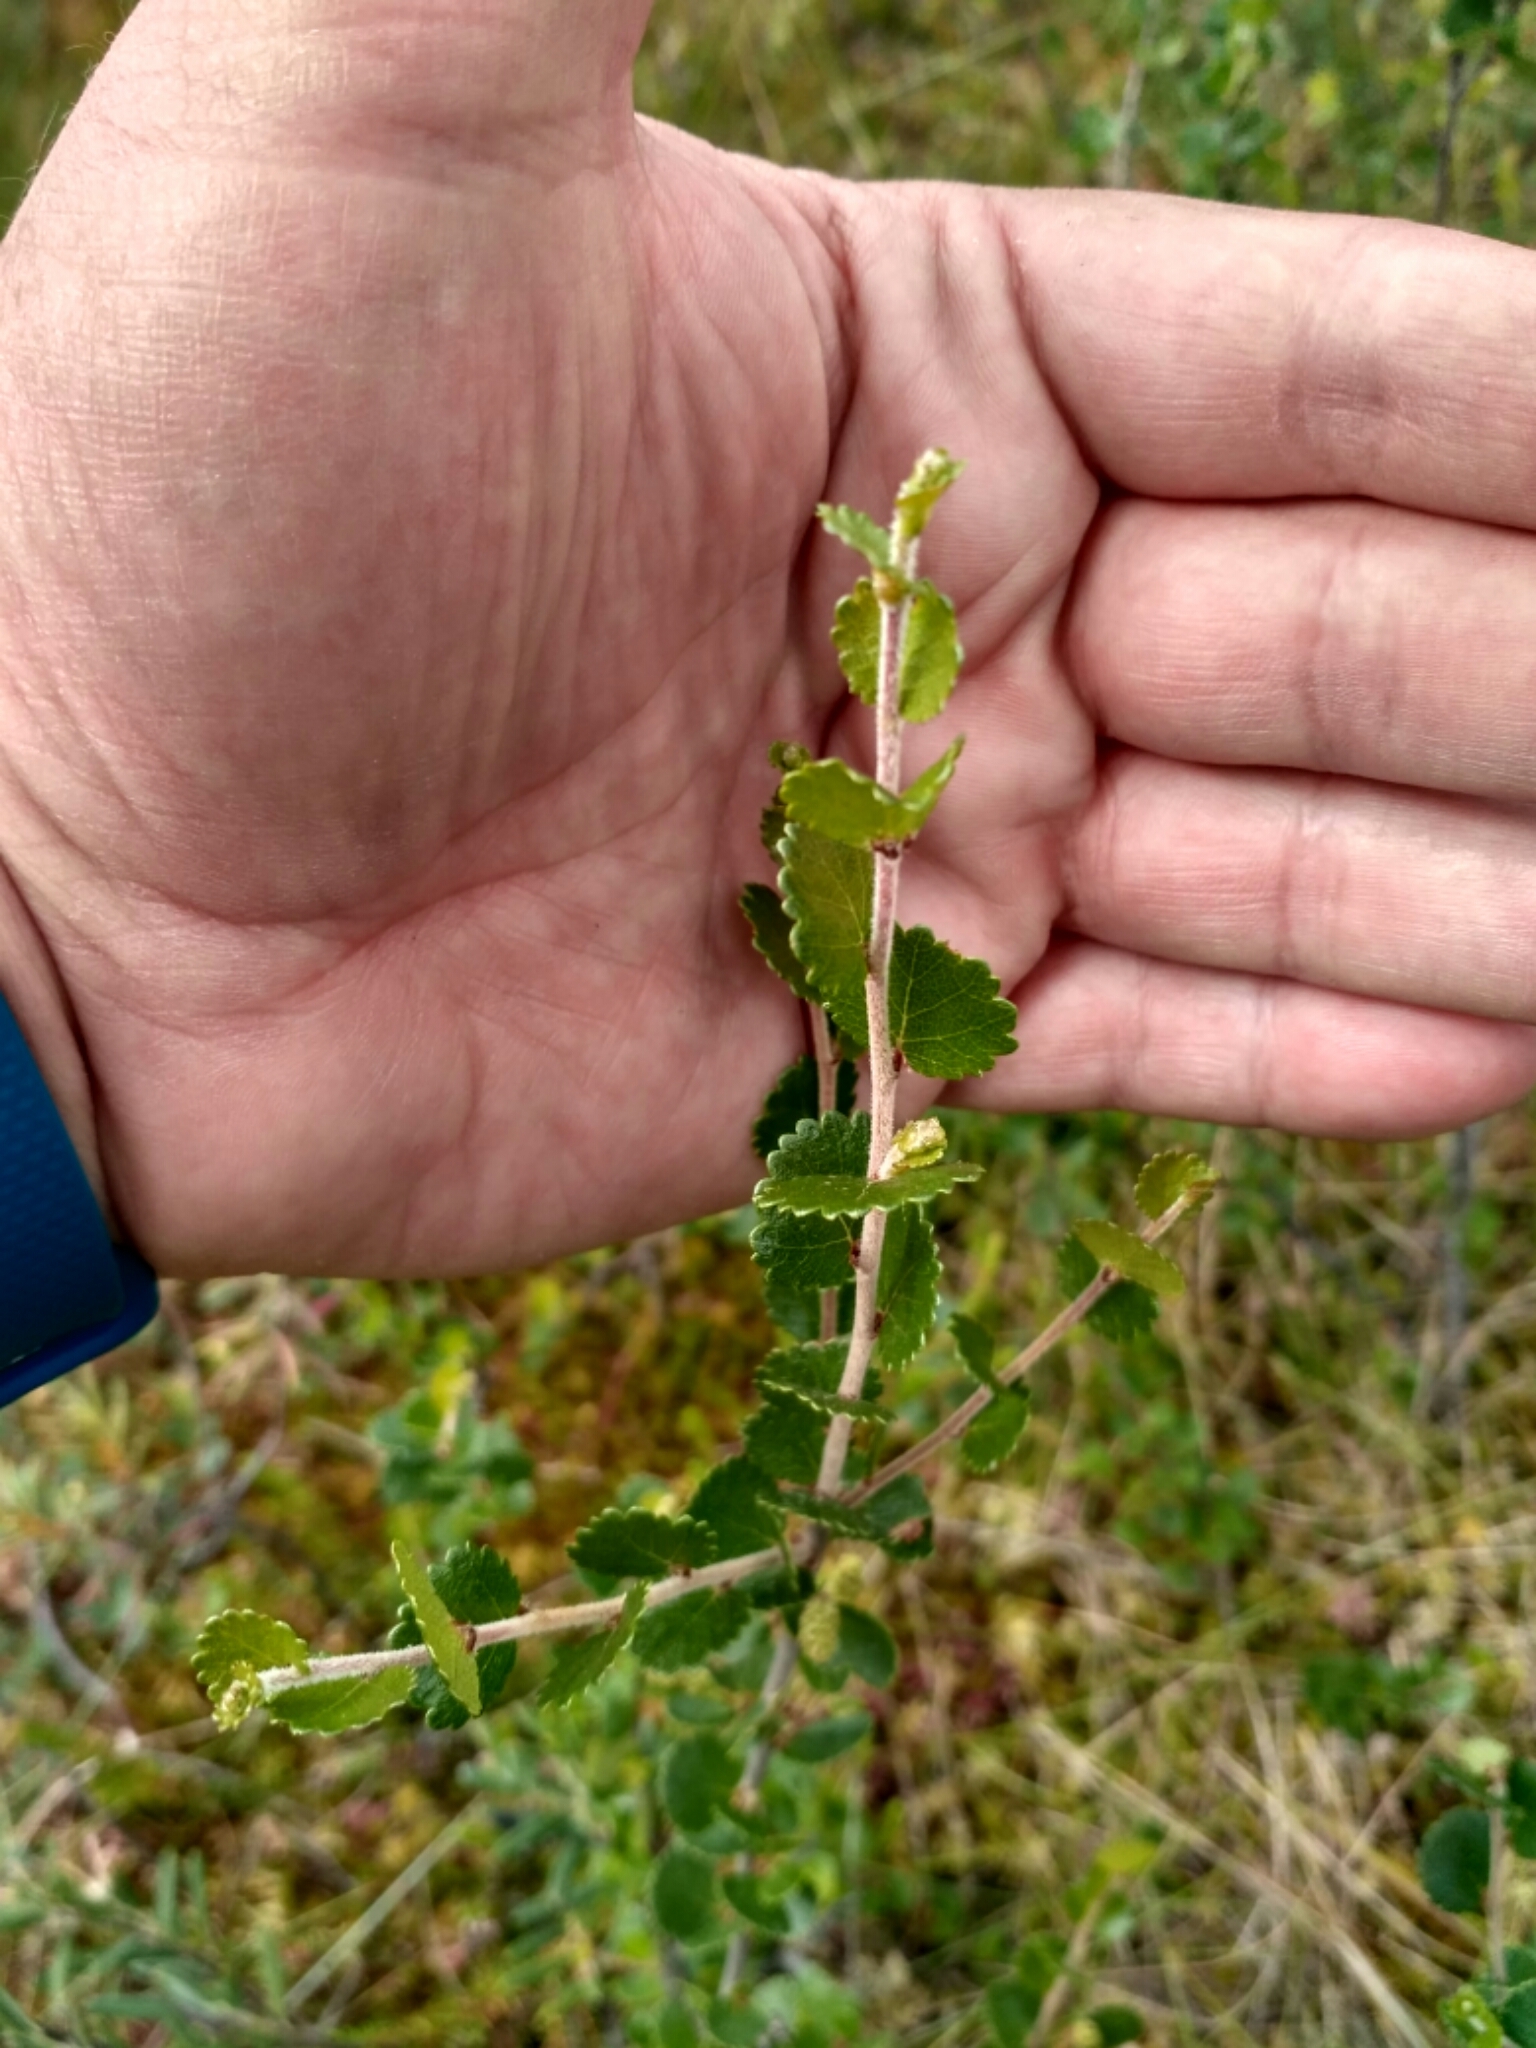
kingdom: Plantae
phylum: Tracheophyta
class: Magnoliopsida
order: Fagales
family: Betulaceae
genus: Betula
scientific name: Betula nana
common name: Arctic dwarf birch
